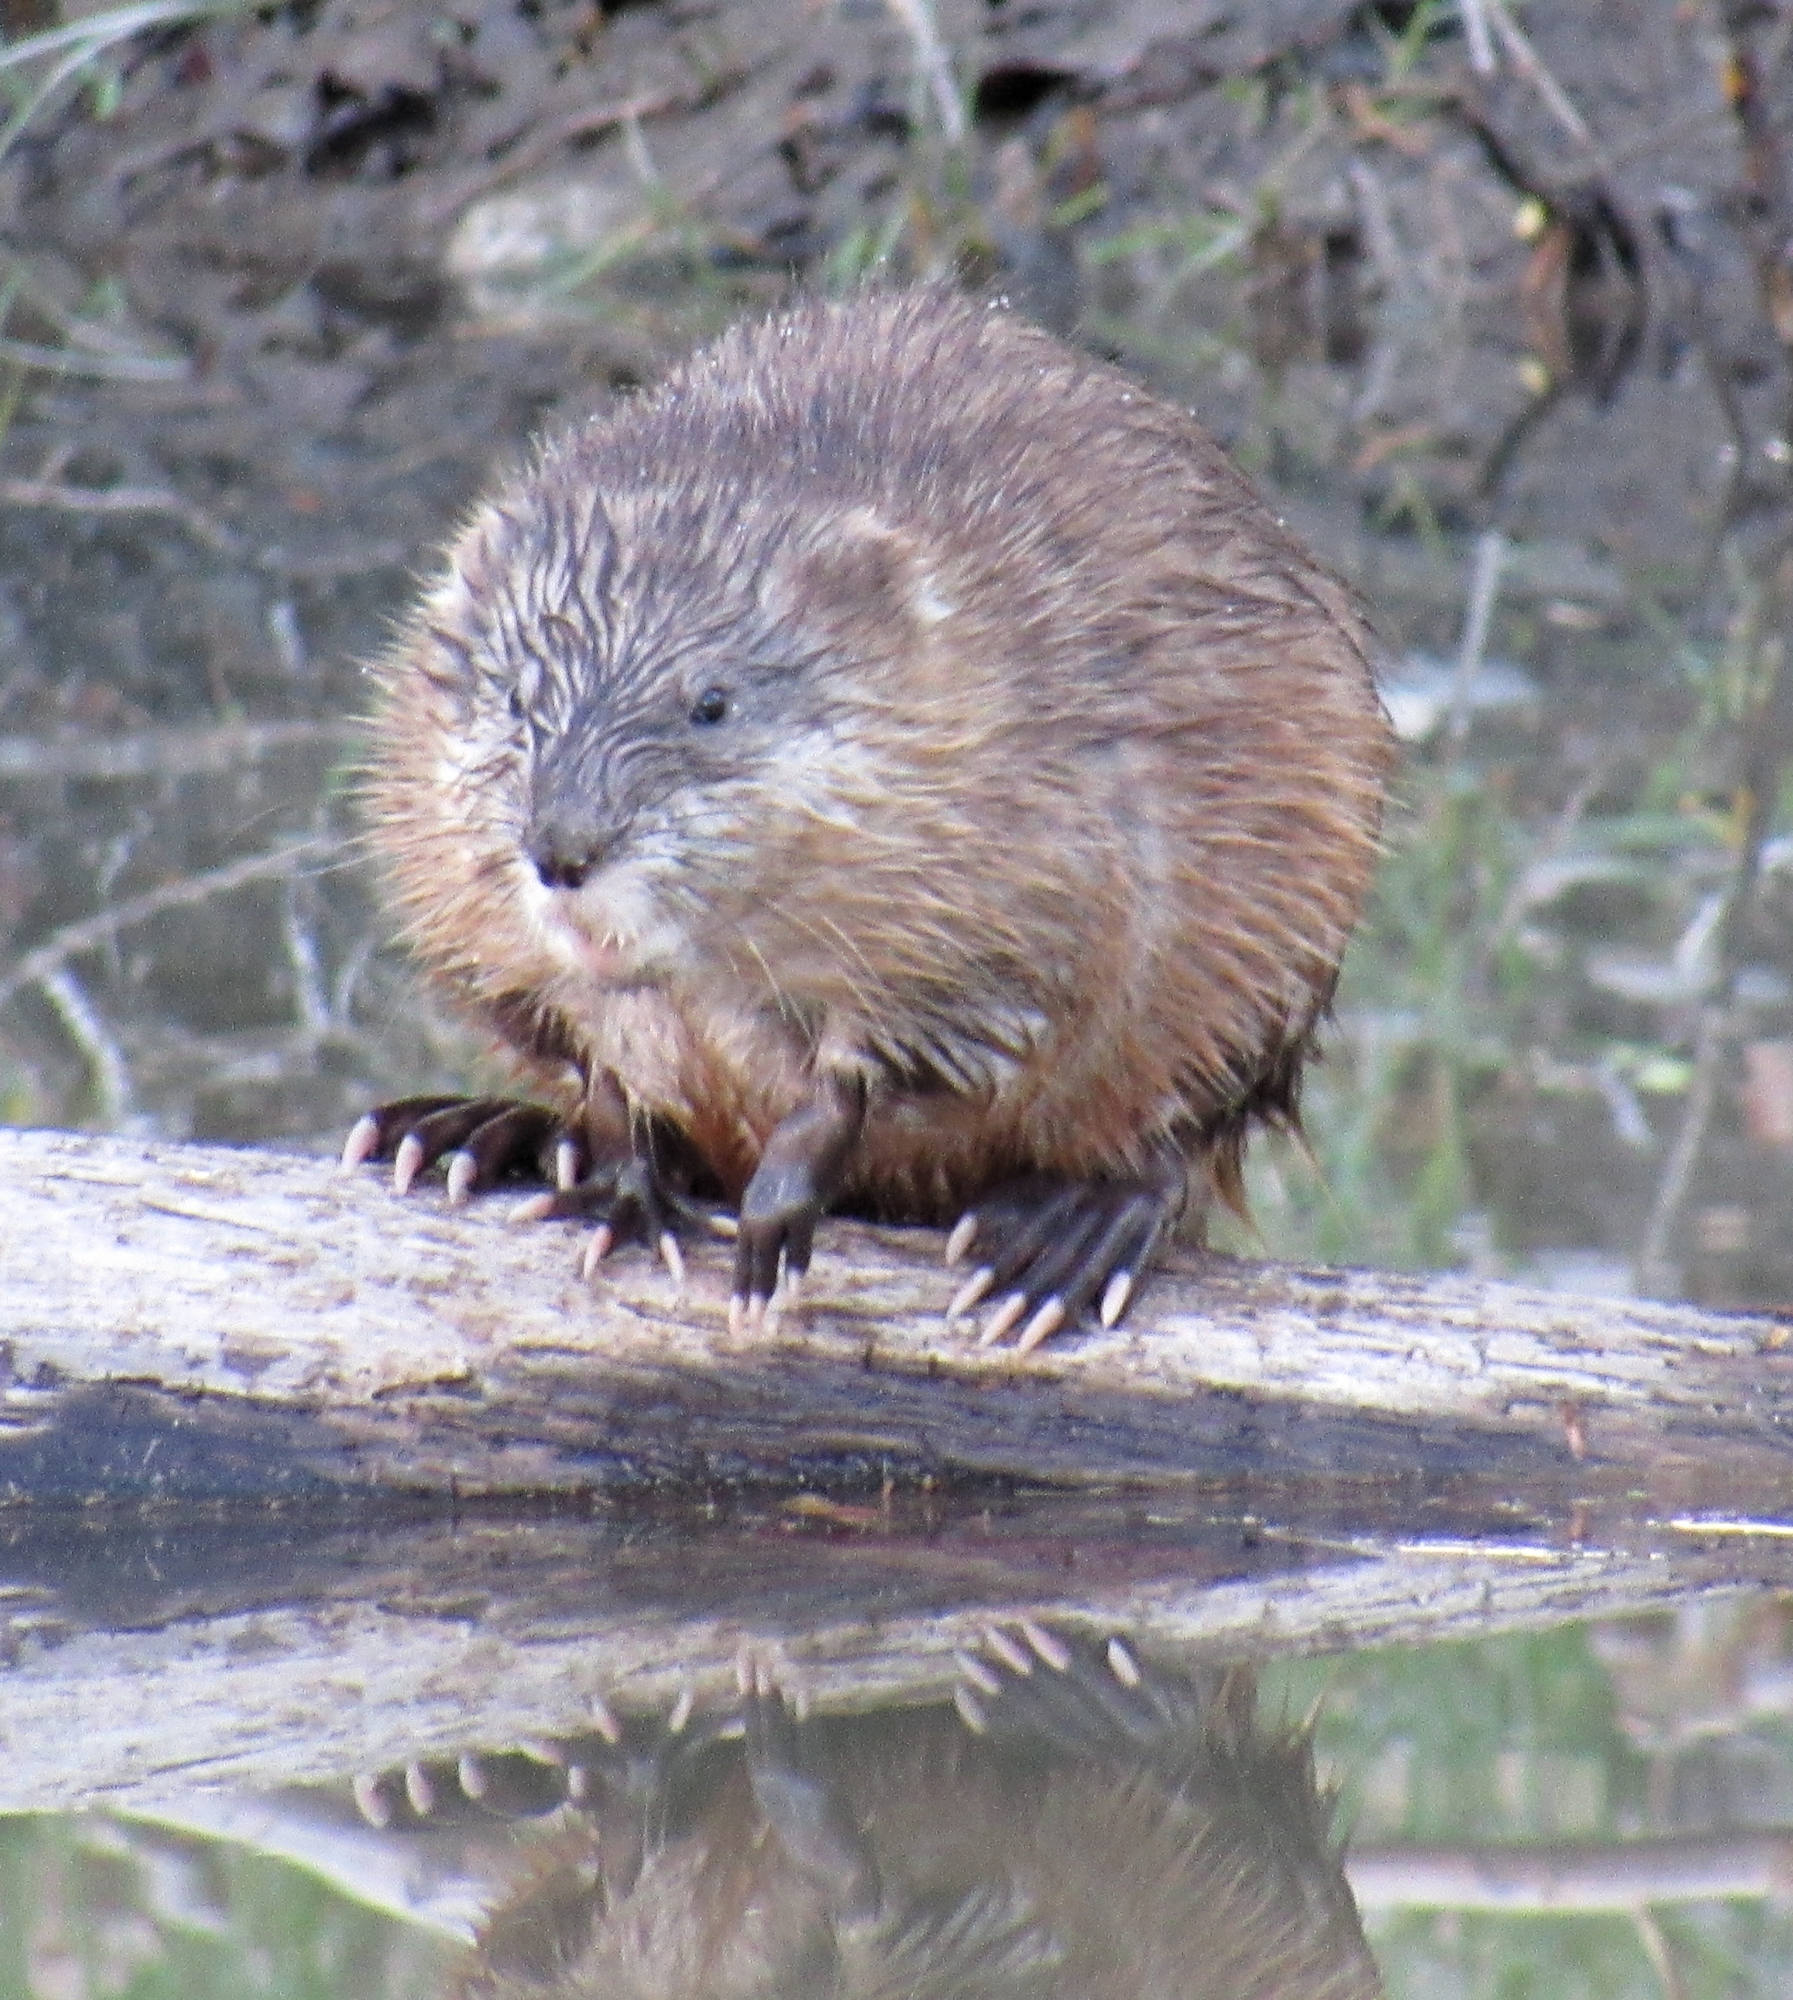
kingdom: Animalia
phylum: Chordata
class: Mammalia
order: Rodentia
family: Cricetidae
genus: Ondatra
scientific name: Ondatra zibethicus
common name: Muskrat
